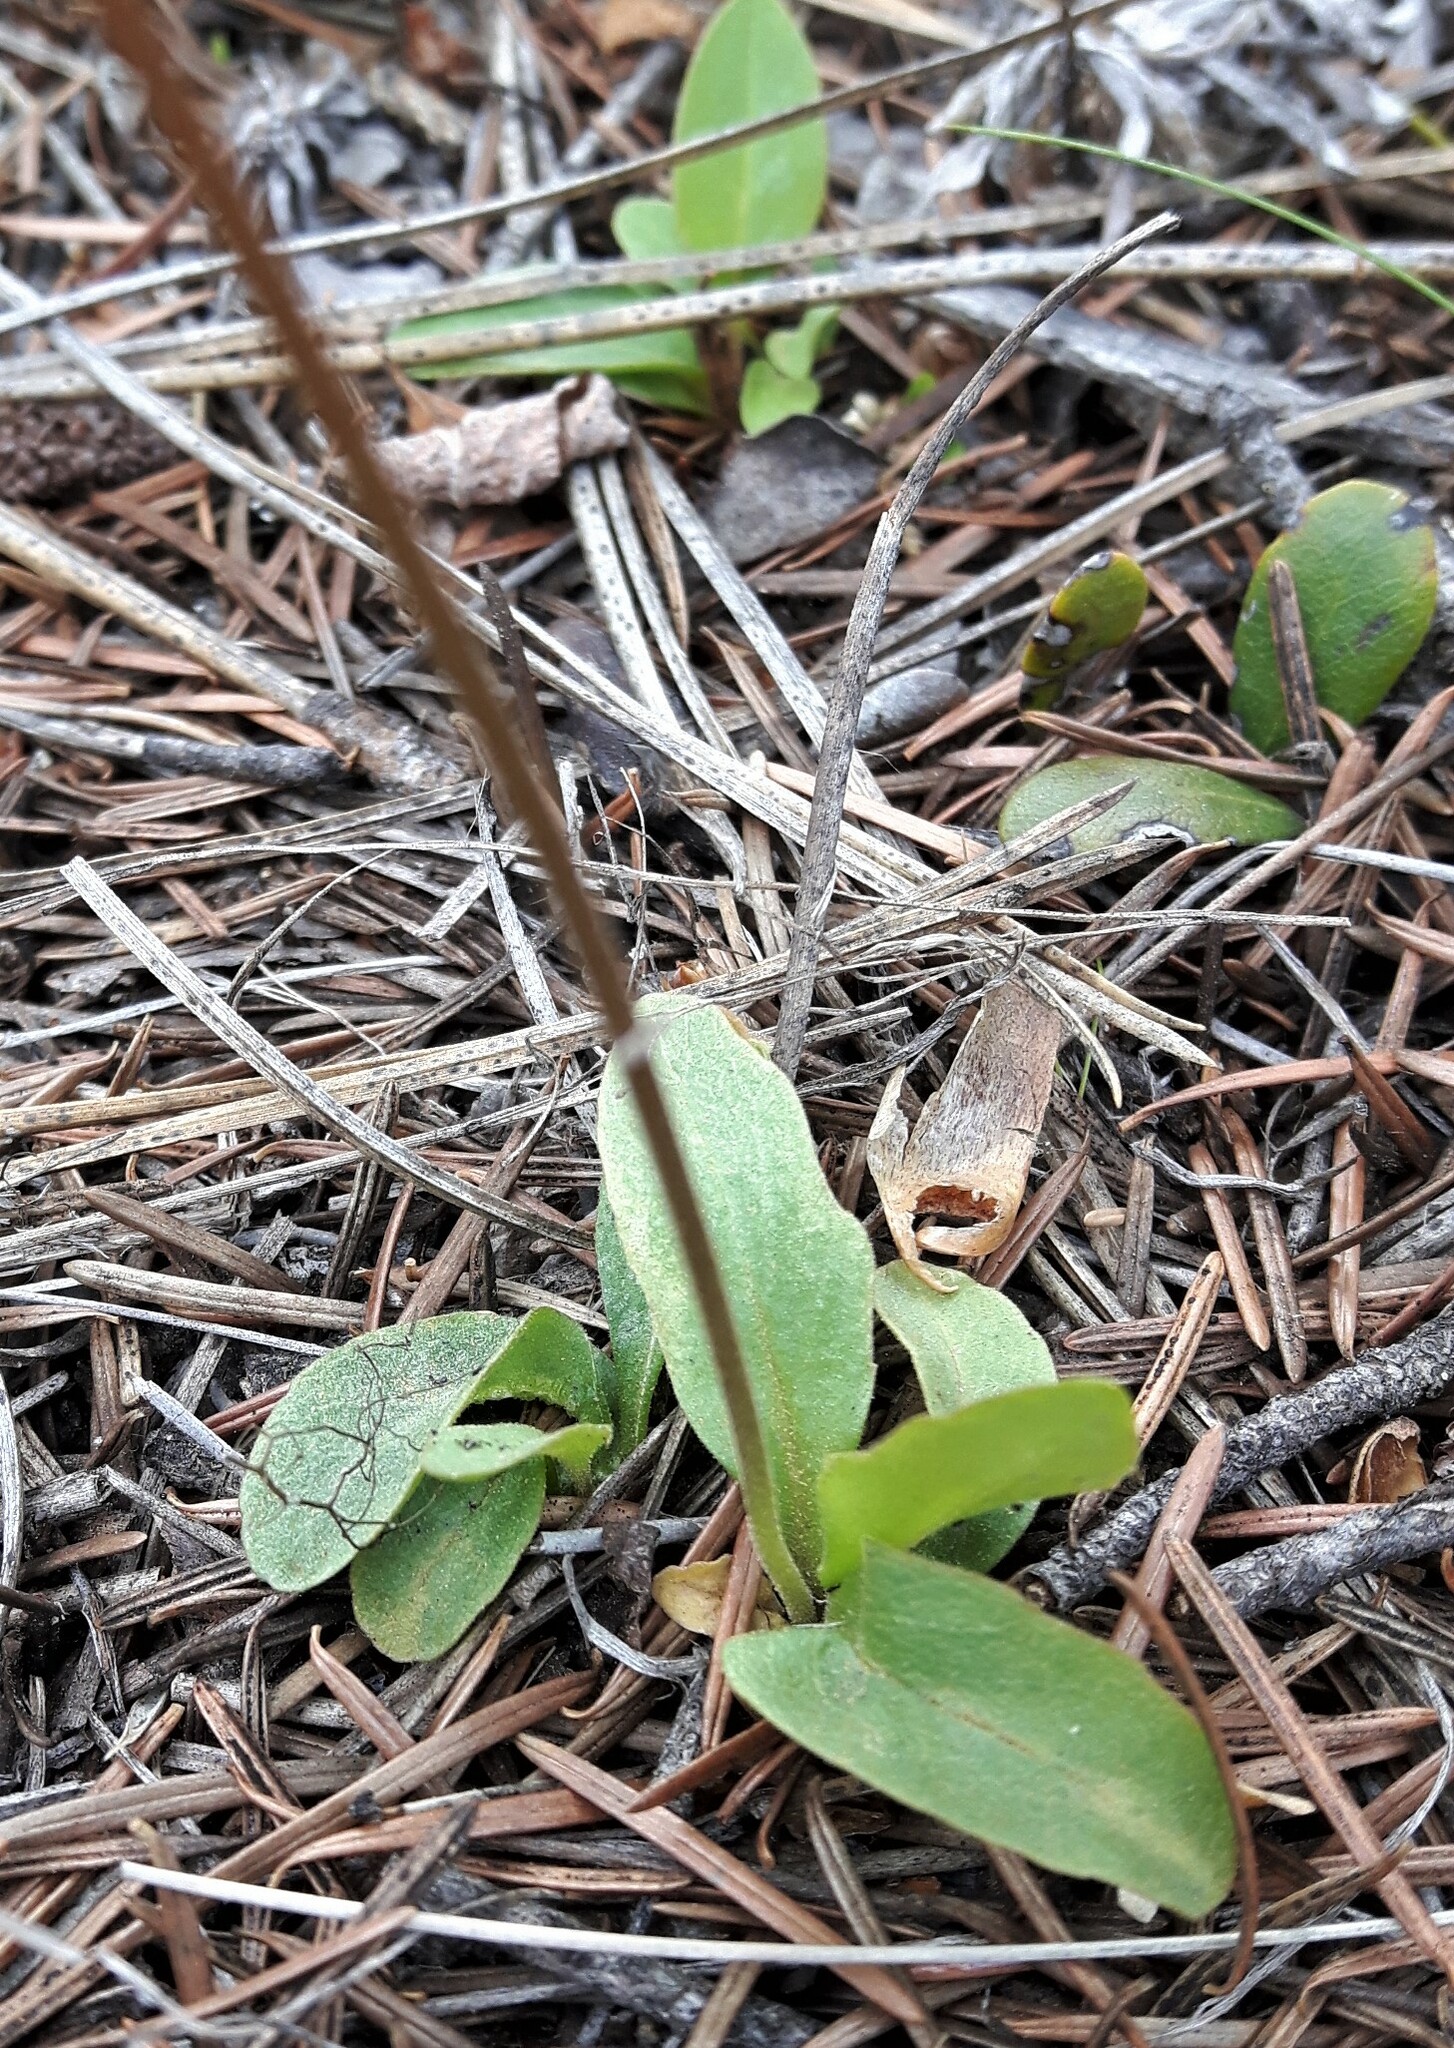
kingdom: Plantae
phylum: Tracheophyta
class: Magnoliopsida
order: Ericales
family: Primulaceae
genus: Dodecatheon
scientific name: Dodecatheon pulchellum
